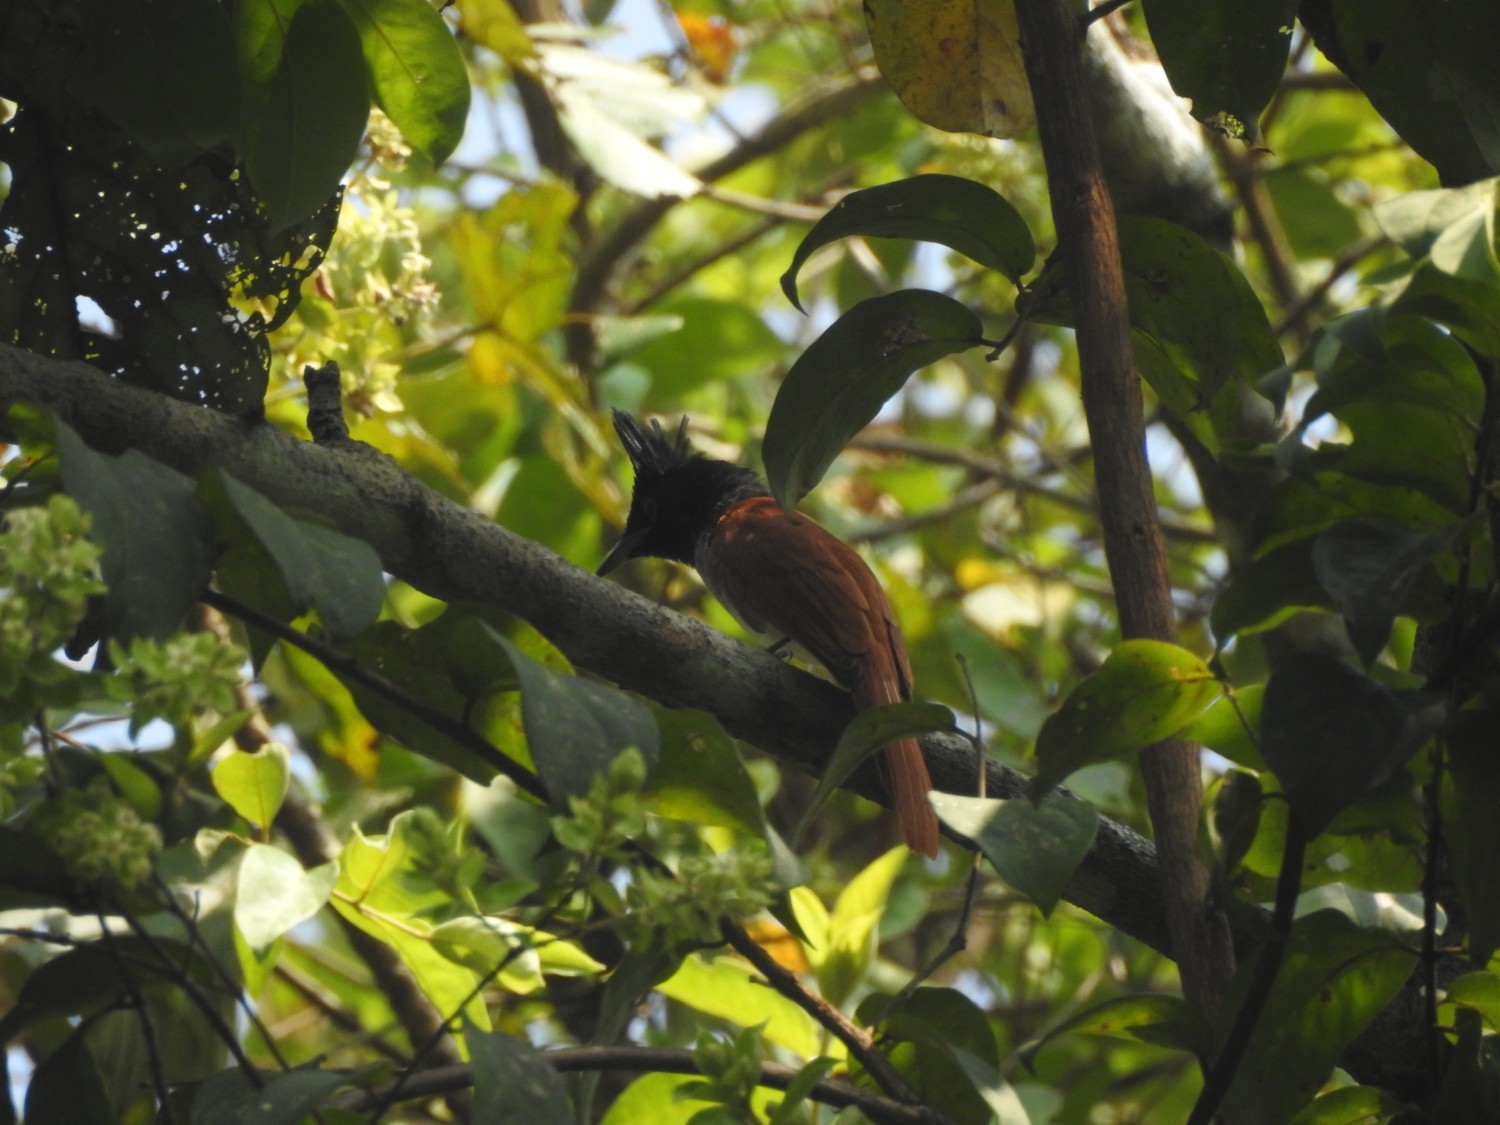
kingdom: Animalia
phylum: Chordata
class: Aves
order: Passeriformes
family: Monarchidae
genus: Terpsiphone
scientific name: Terpsiphone paradisi
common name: Indian paradise flycatcher
